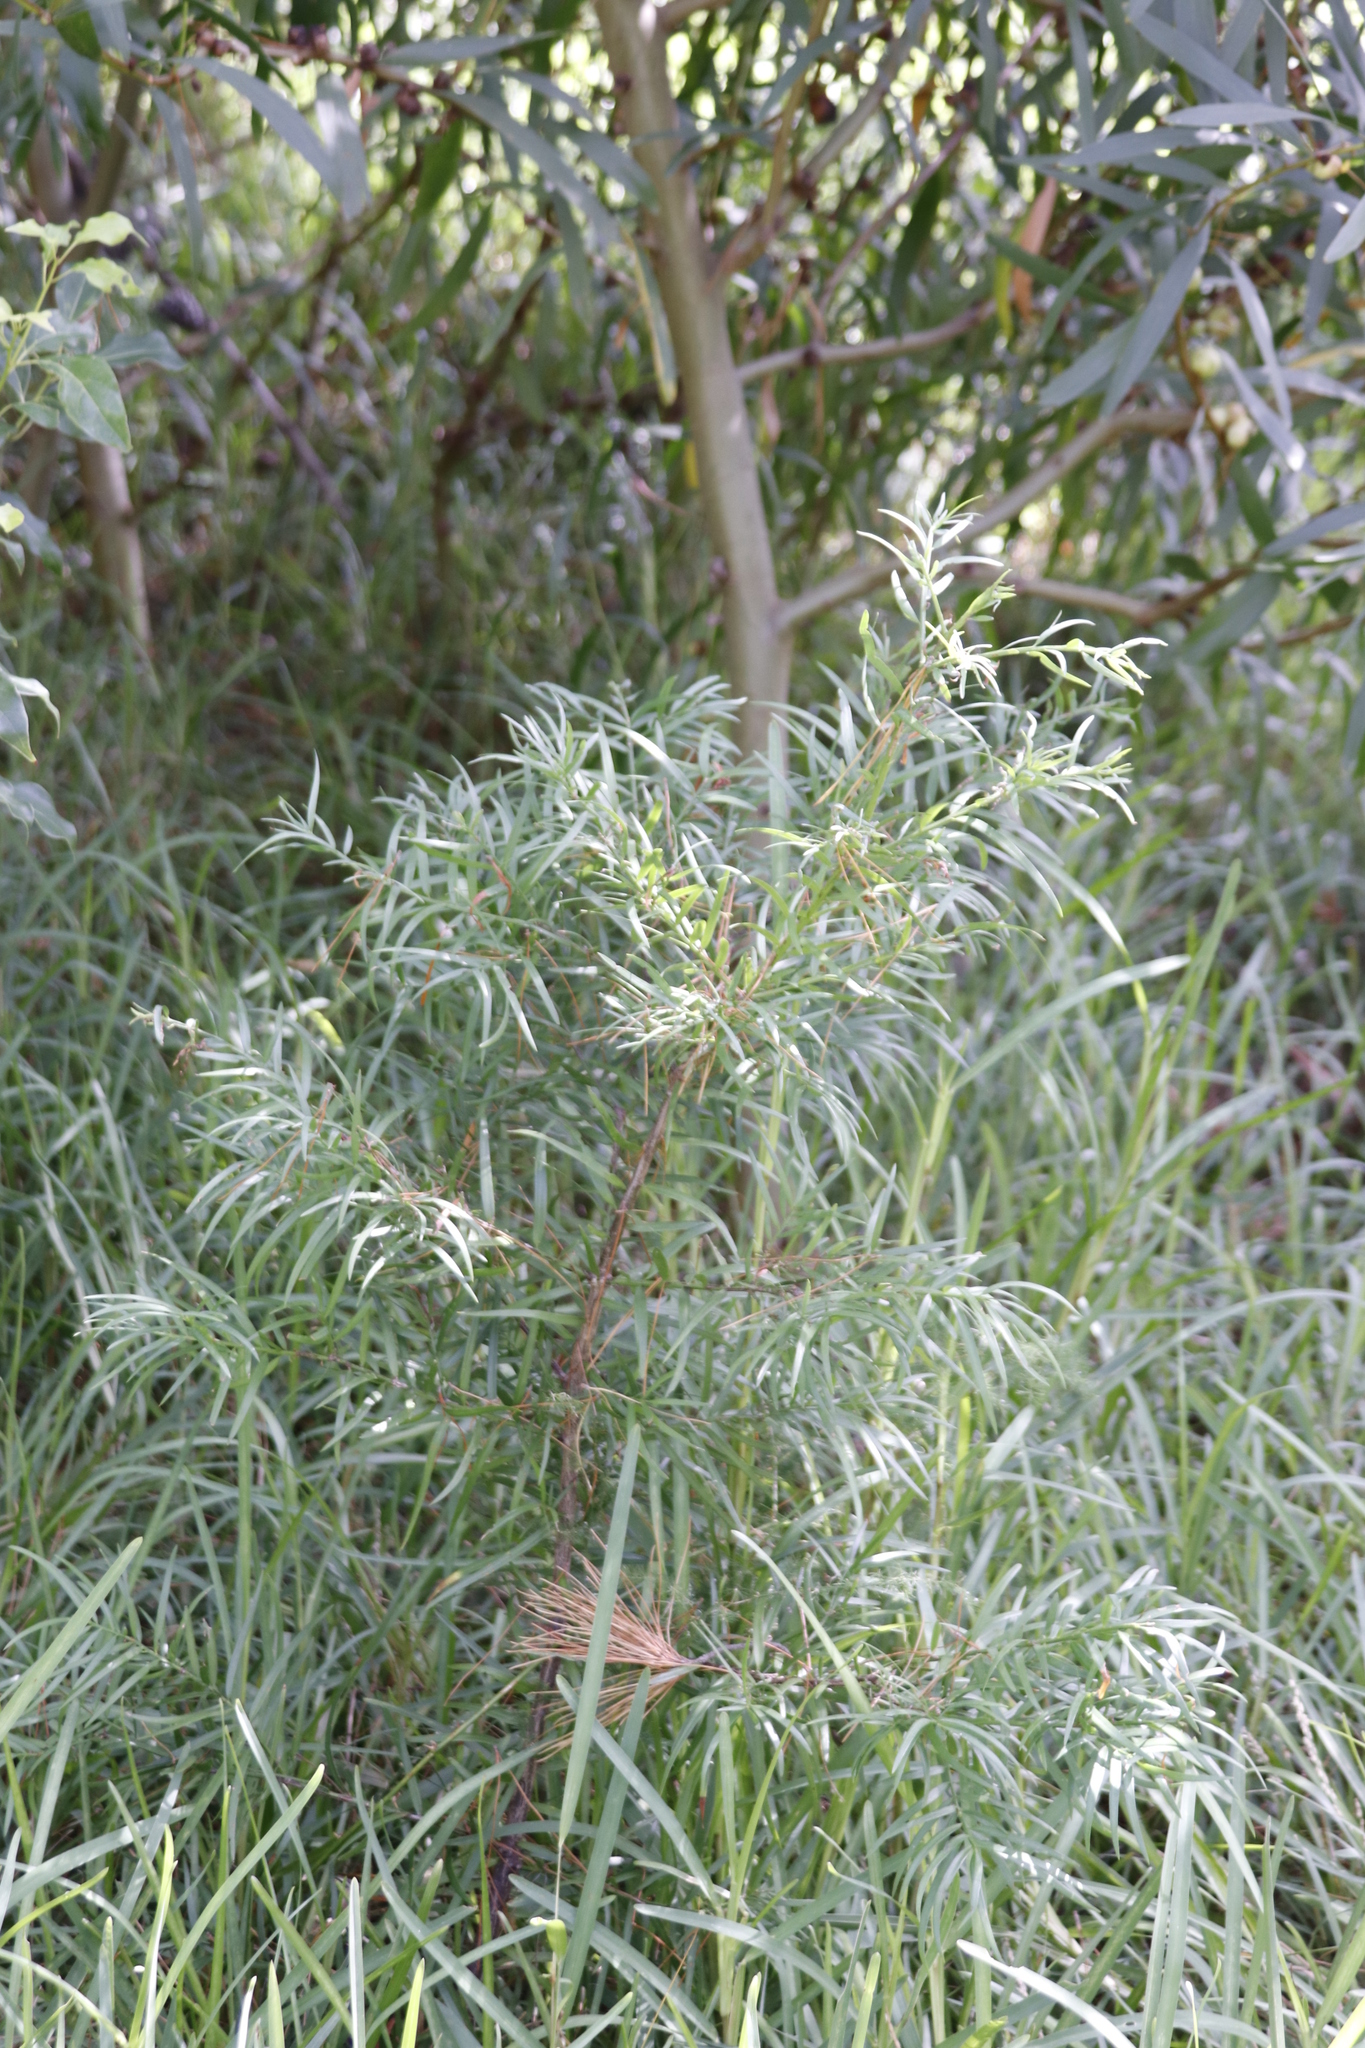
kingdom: Plantae
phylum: Tracheophyta
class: Pinopsida
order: Pinales
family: Podocarpaceae
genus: Afrocarpus
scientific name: Afrocarpus falcatus
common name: Bastard yellowwood
